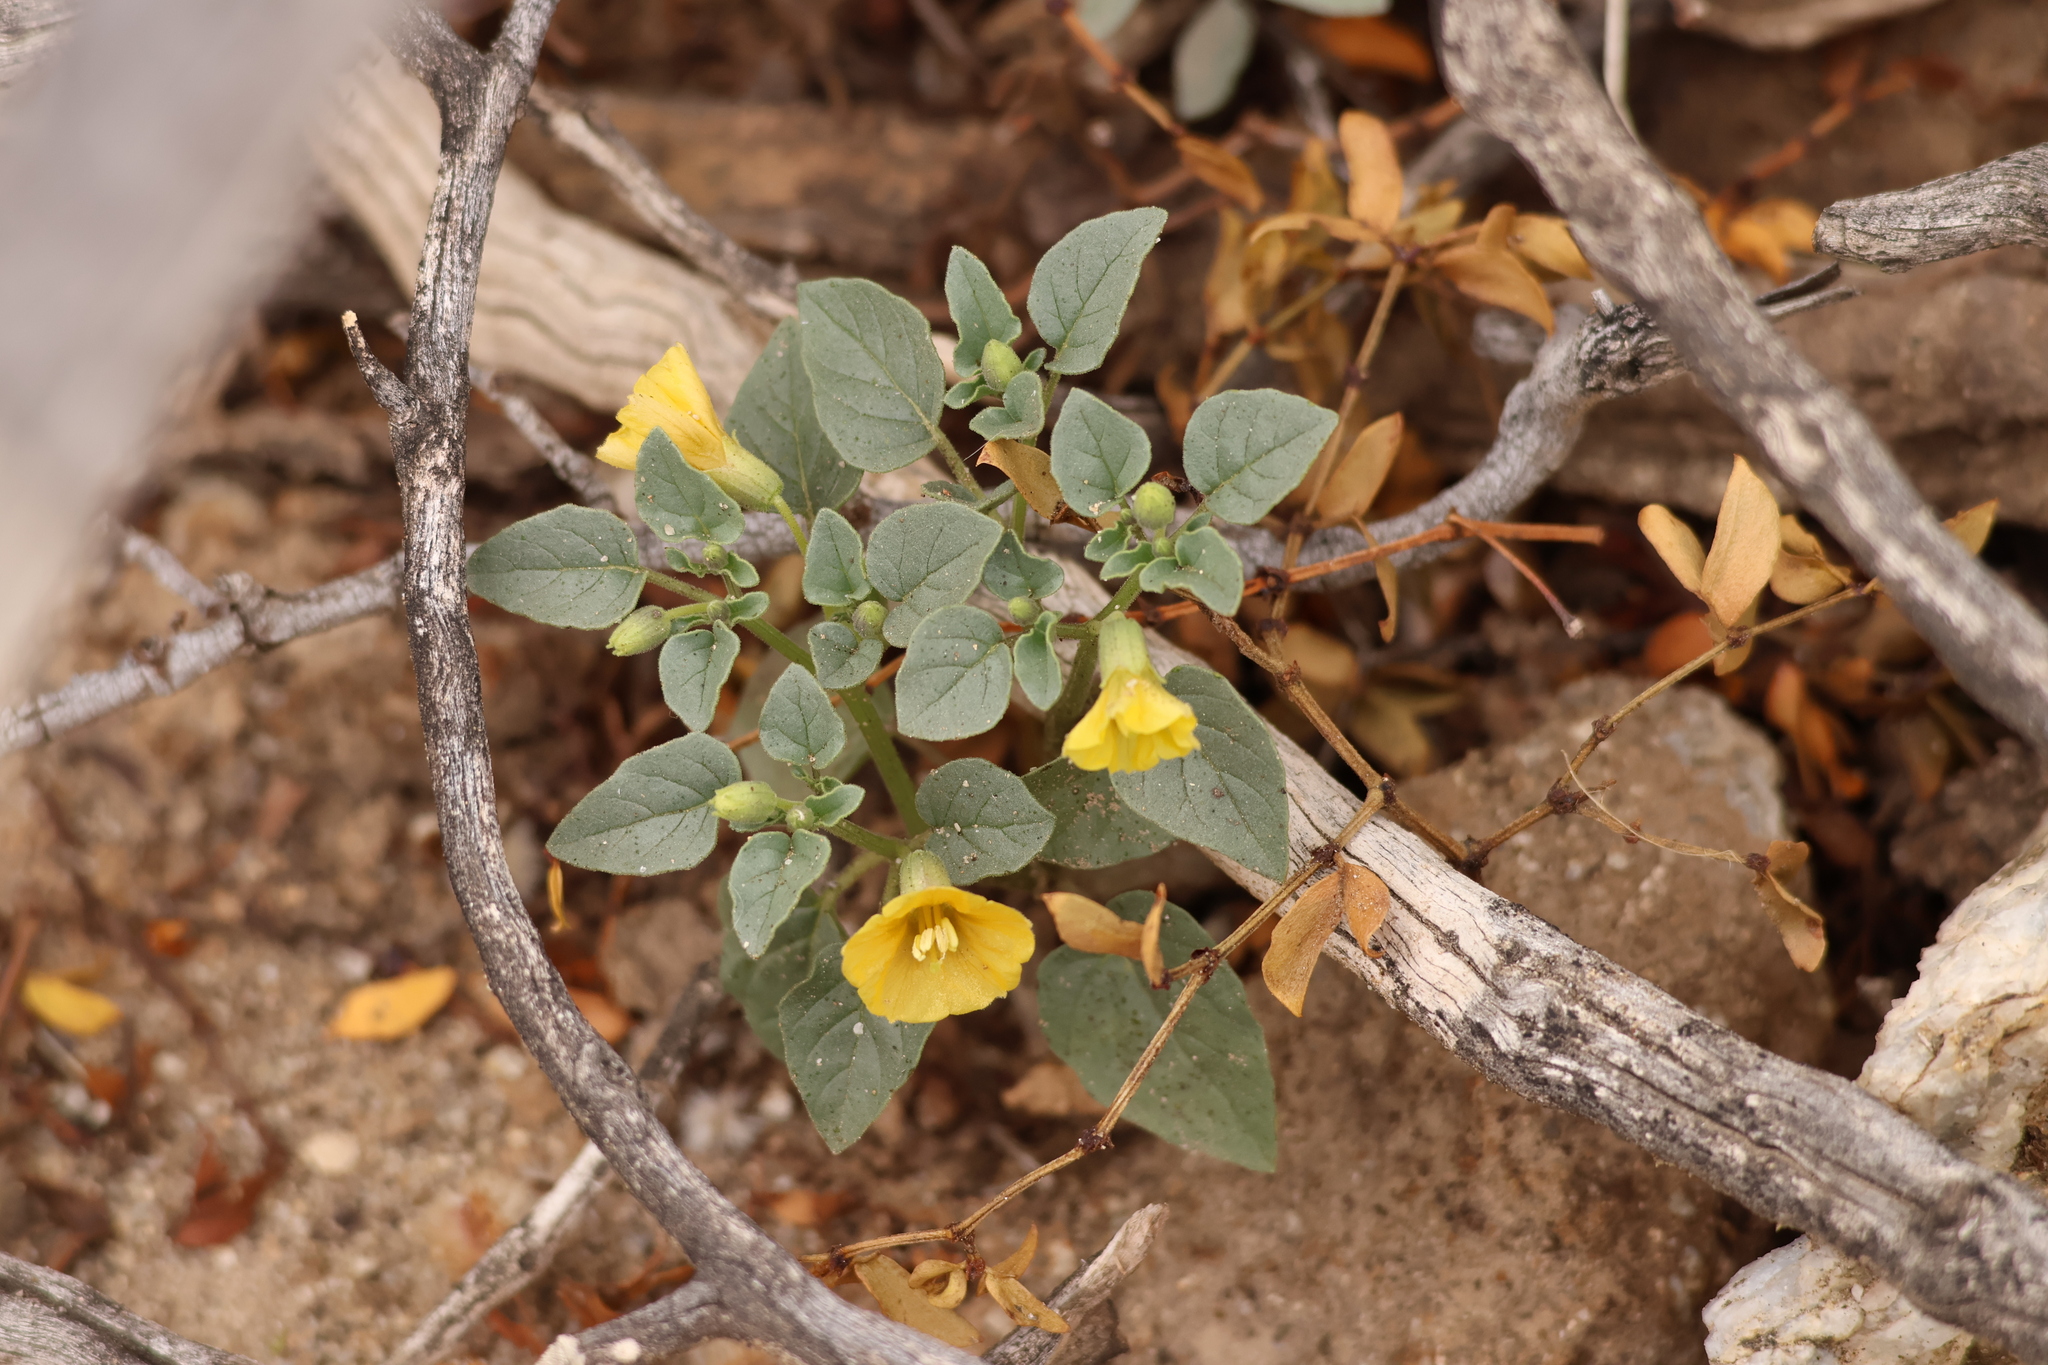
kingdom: Plantae
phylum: Tracheophyta
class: Magnoliopsida
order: Solanales
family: Solanaceae
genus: Physalis
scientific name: Physalis crassifolia
